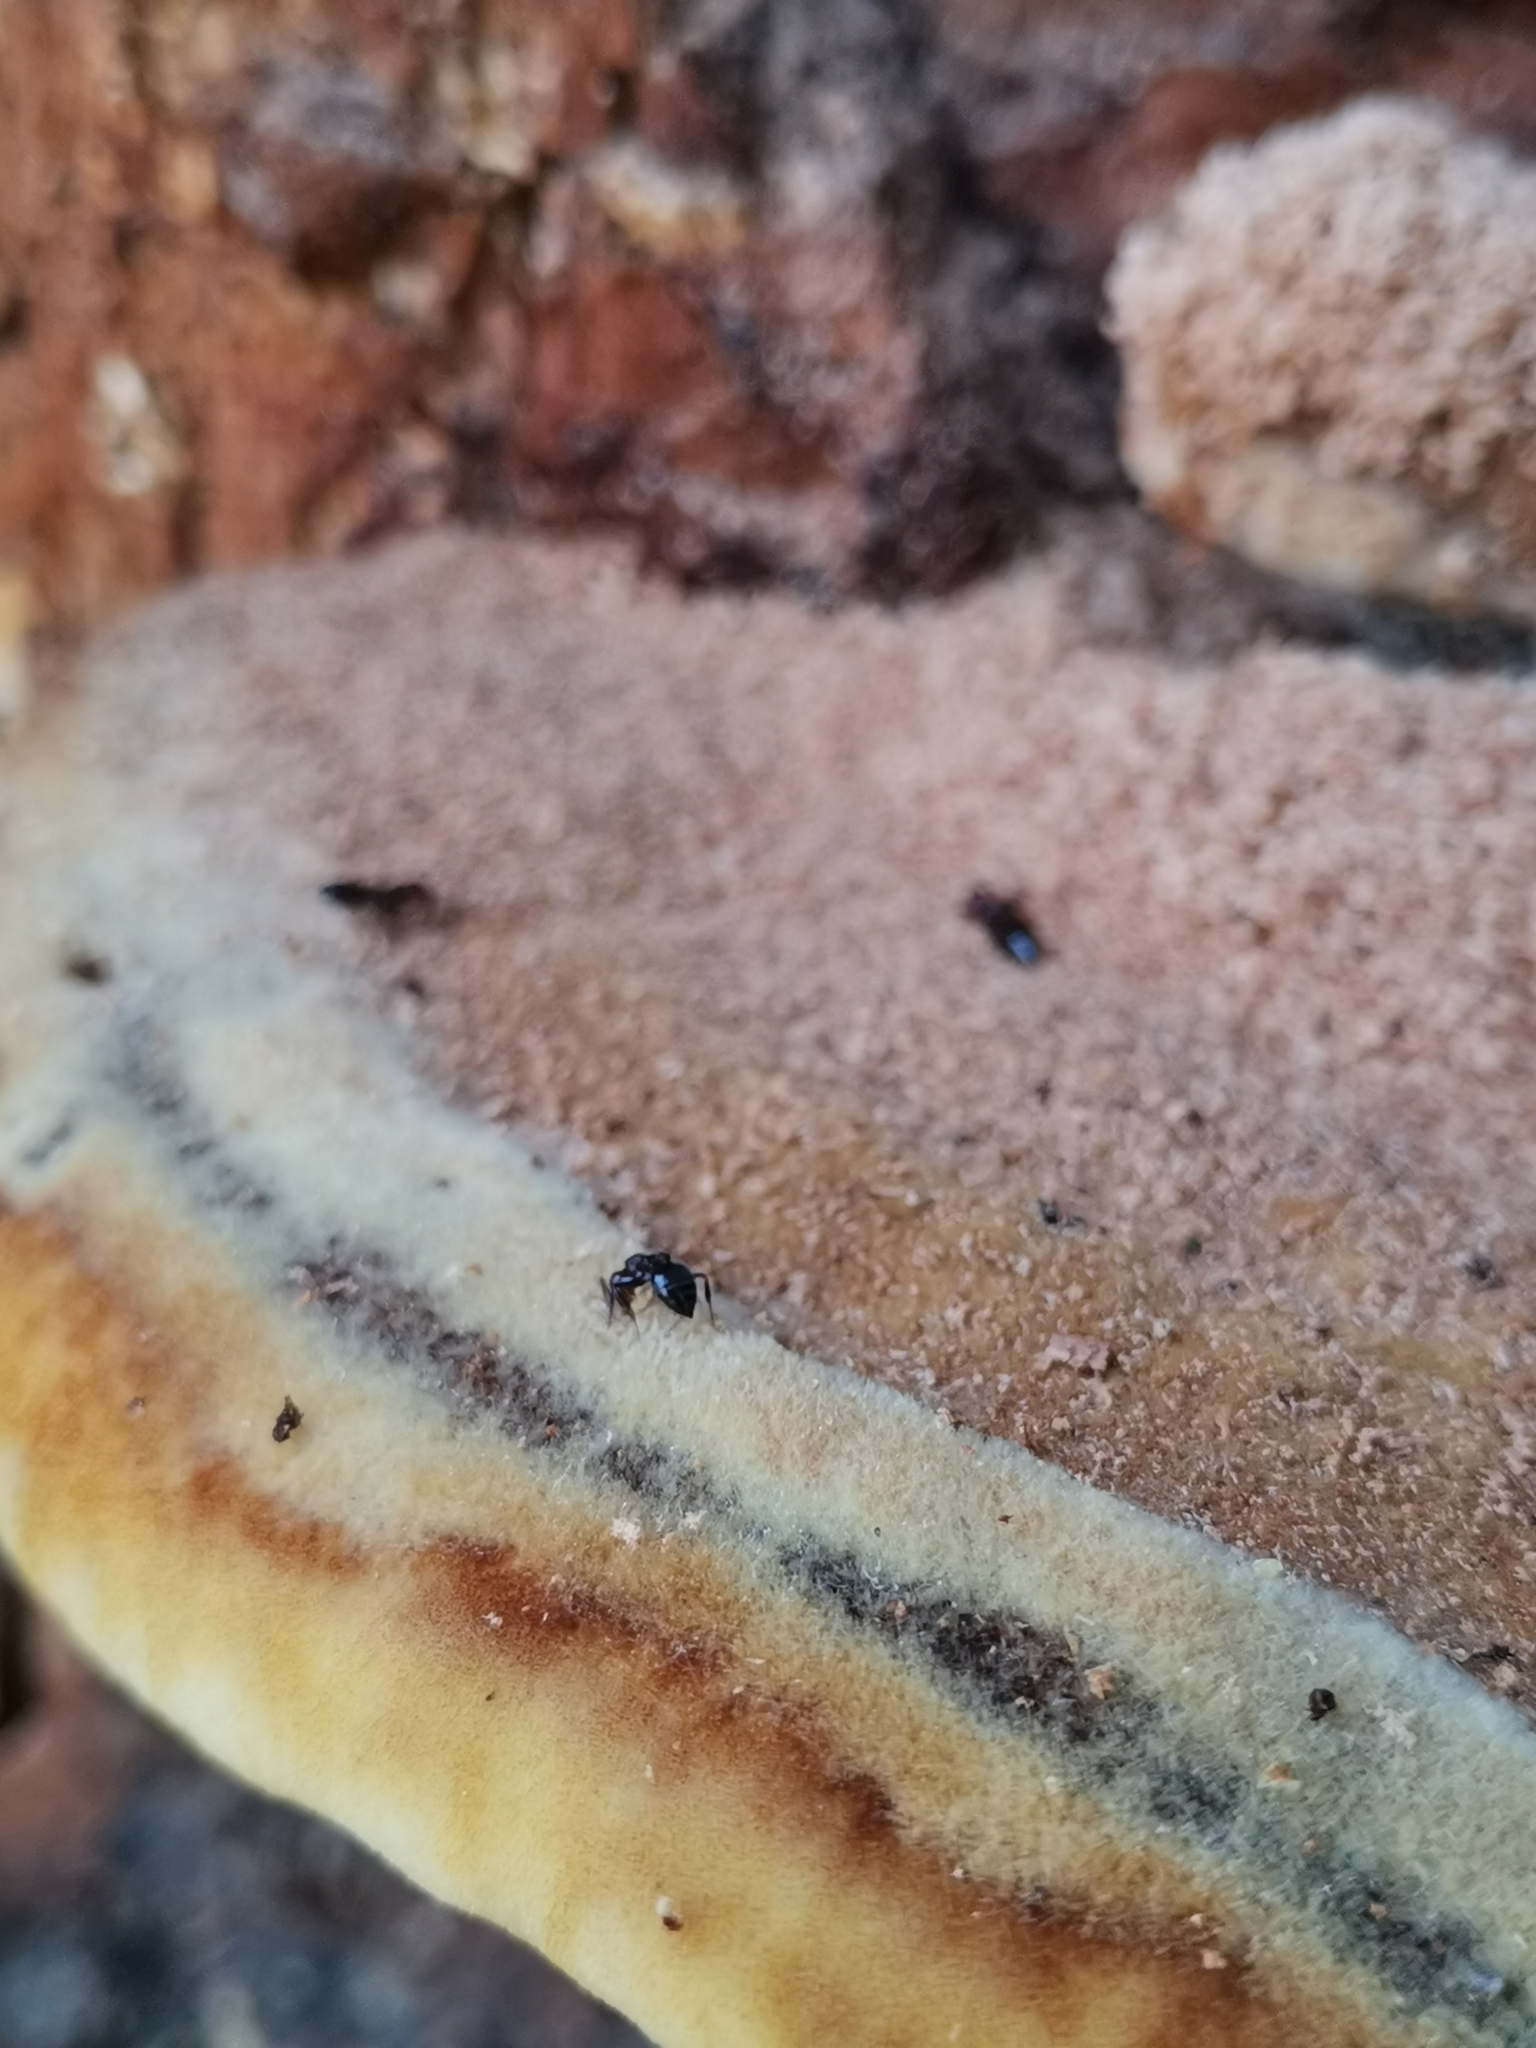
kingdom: Animalia
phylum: Arthropoda
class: Insecta
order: Hymenoptera
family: Formicidae
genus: Crematogaster
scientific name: Crematogaster scutellaris
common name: Fourmi du liège
